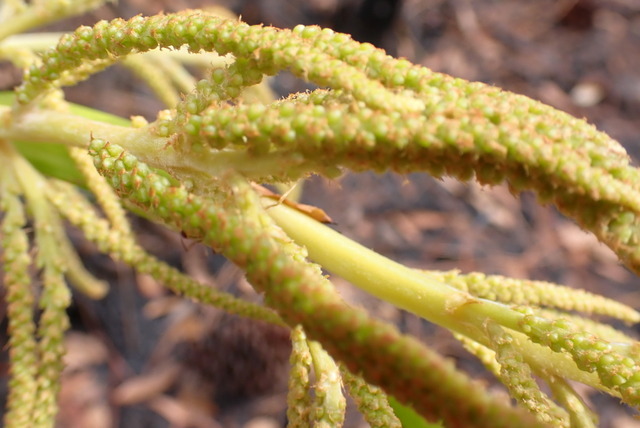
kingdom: Plantae
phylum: Tracheophyta
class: Liliopsida
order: Arecales
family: Arecaceae
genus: Serenoa
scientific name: Serenoa repens
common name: Saw-palmetto
